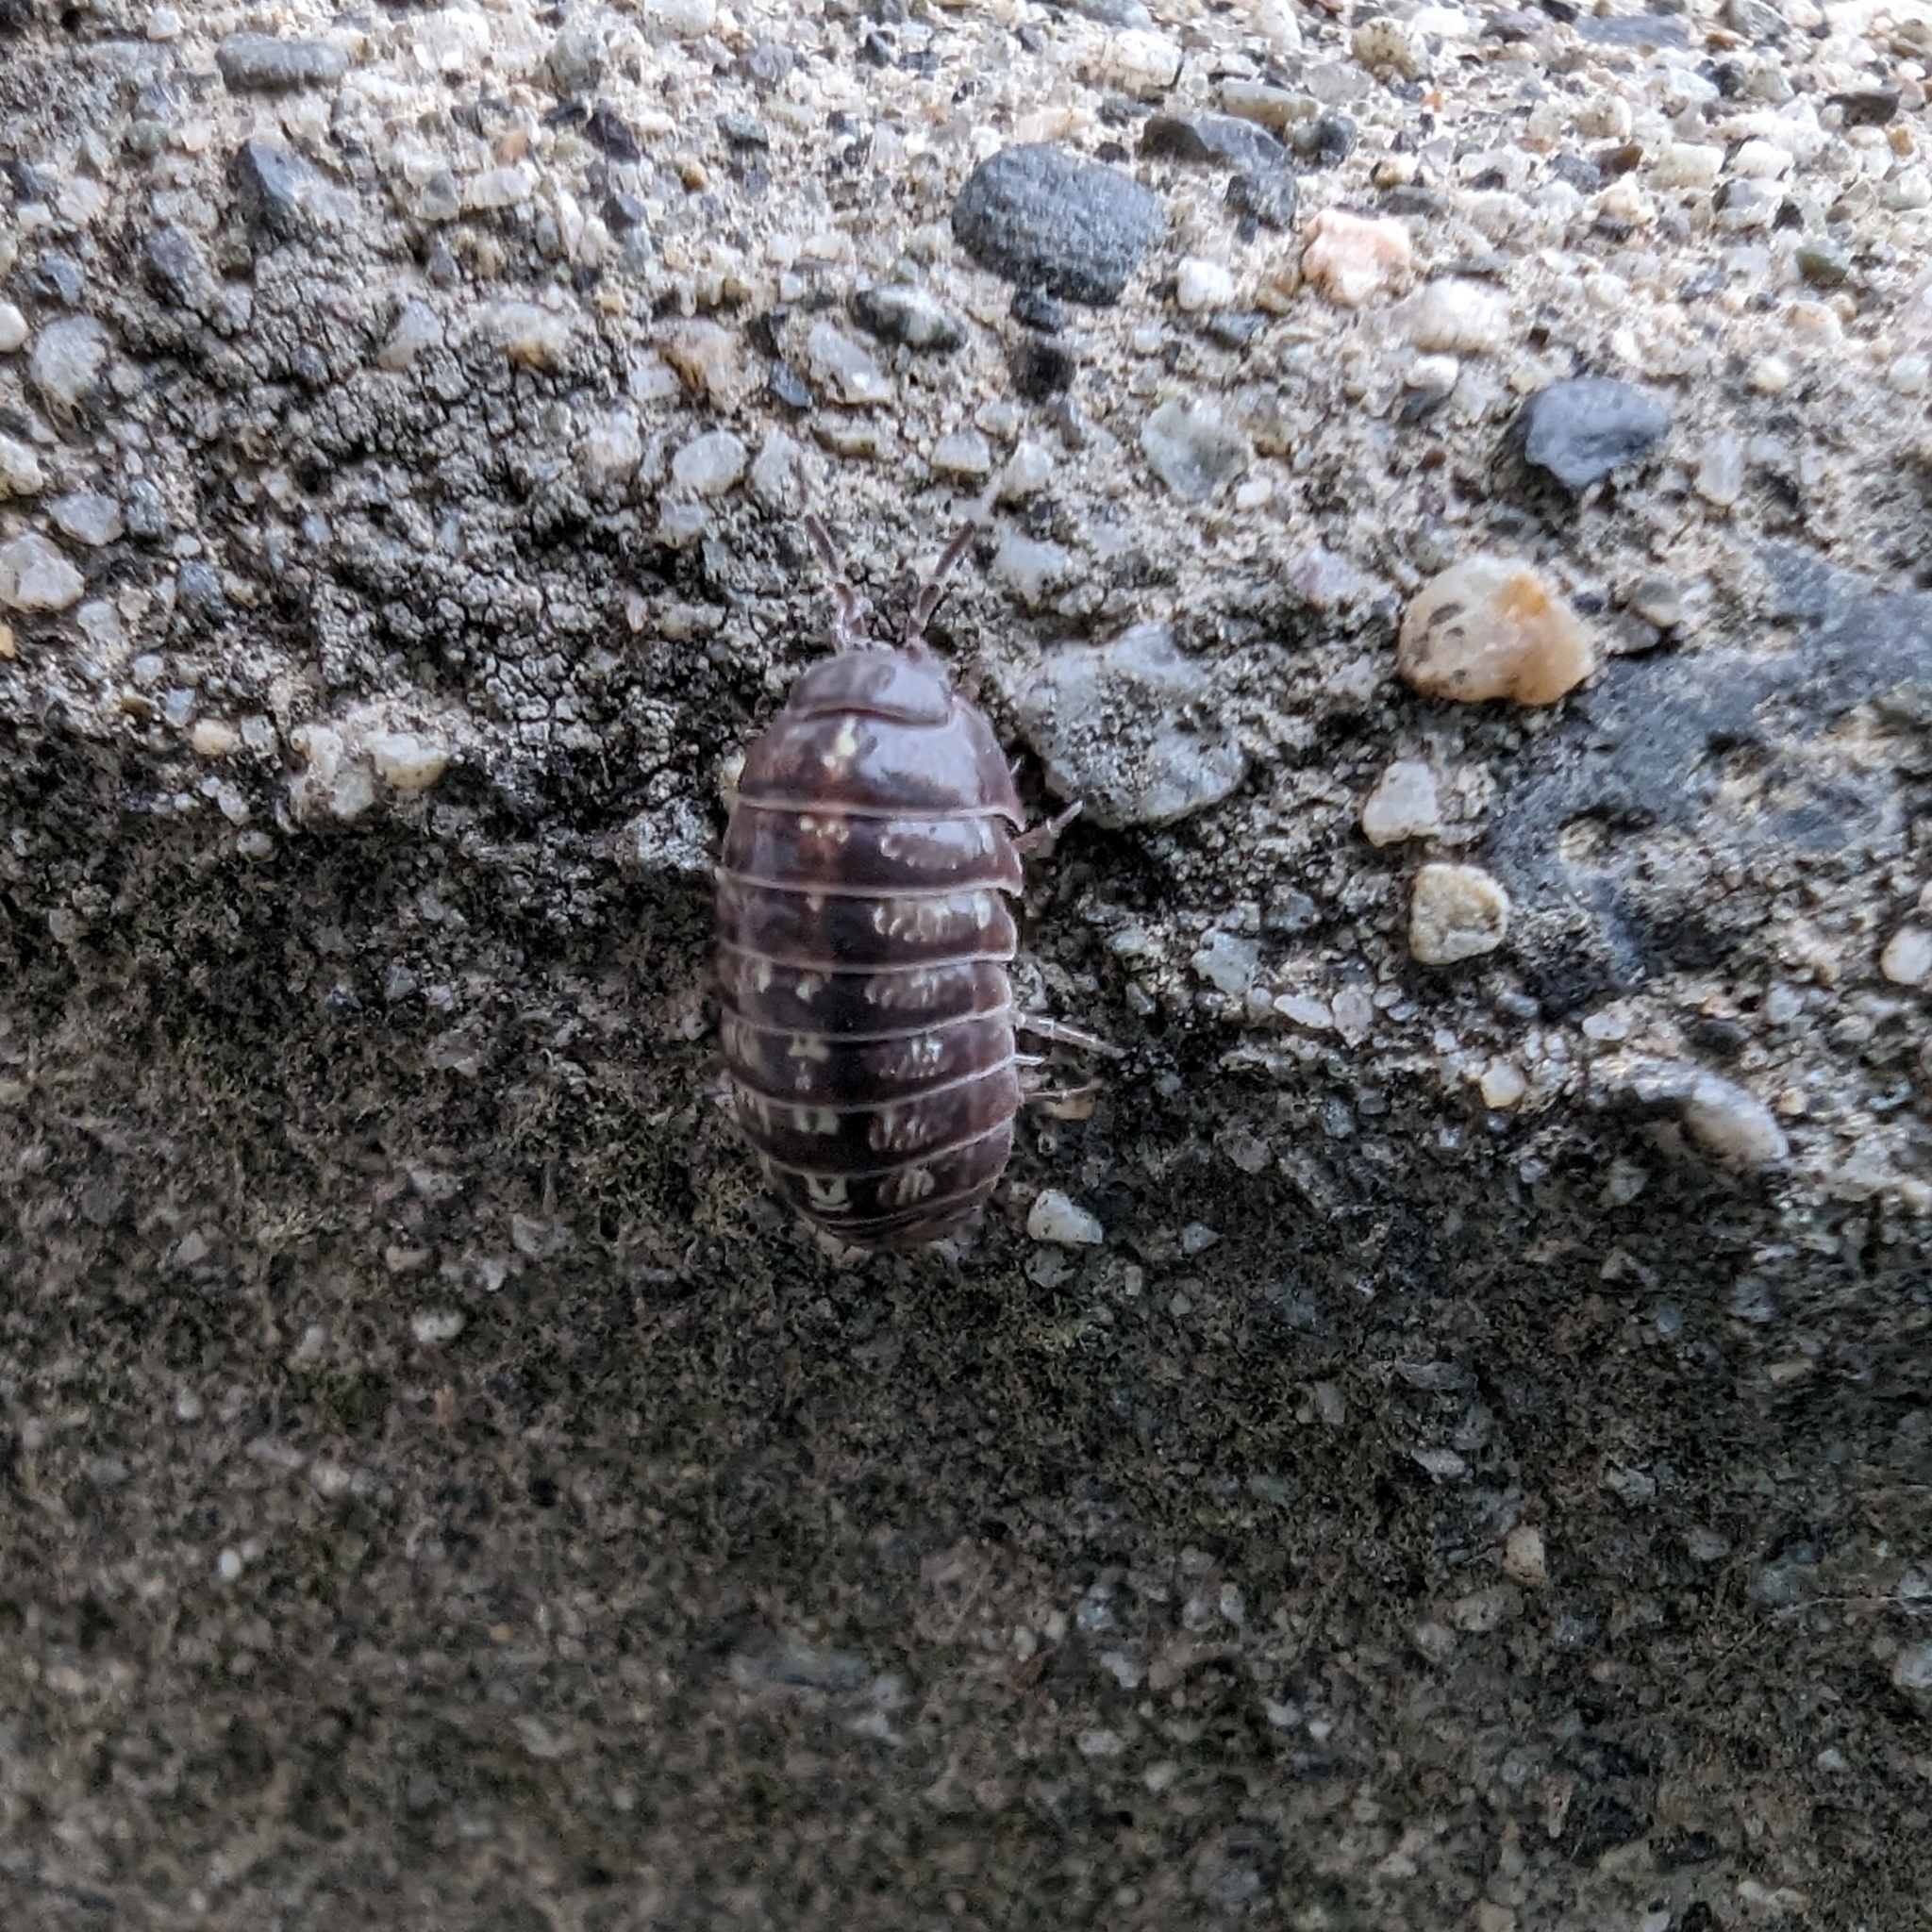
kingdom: Animalia
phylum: Arthropoda
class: Malacostraca
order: Isopoda
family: Armadillidiidae
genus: Armadillidium
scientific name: Armadillidium vulgare
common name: Common pill woodlouse
